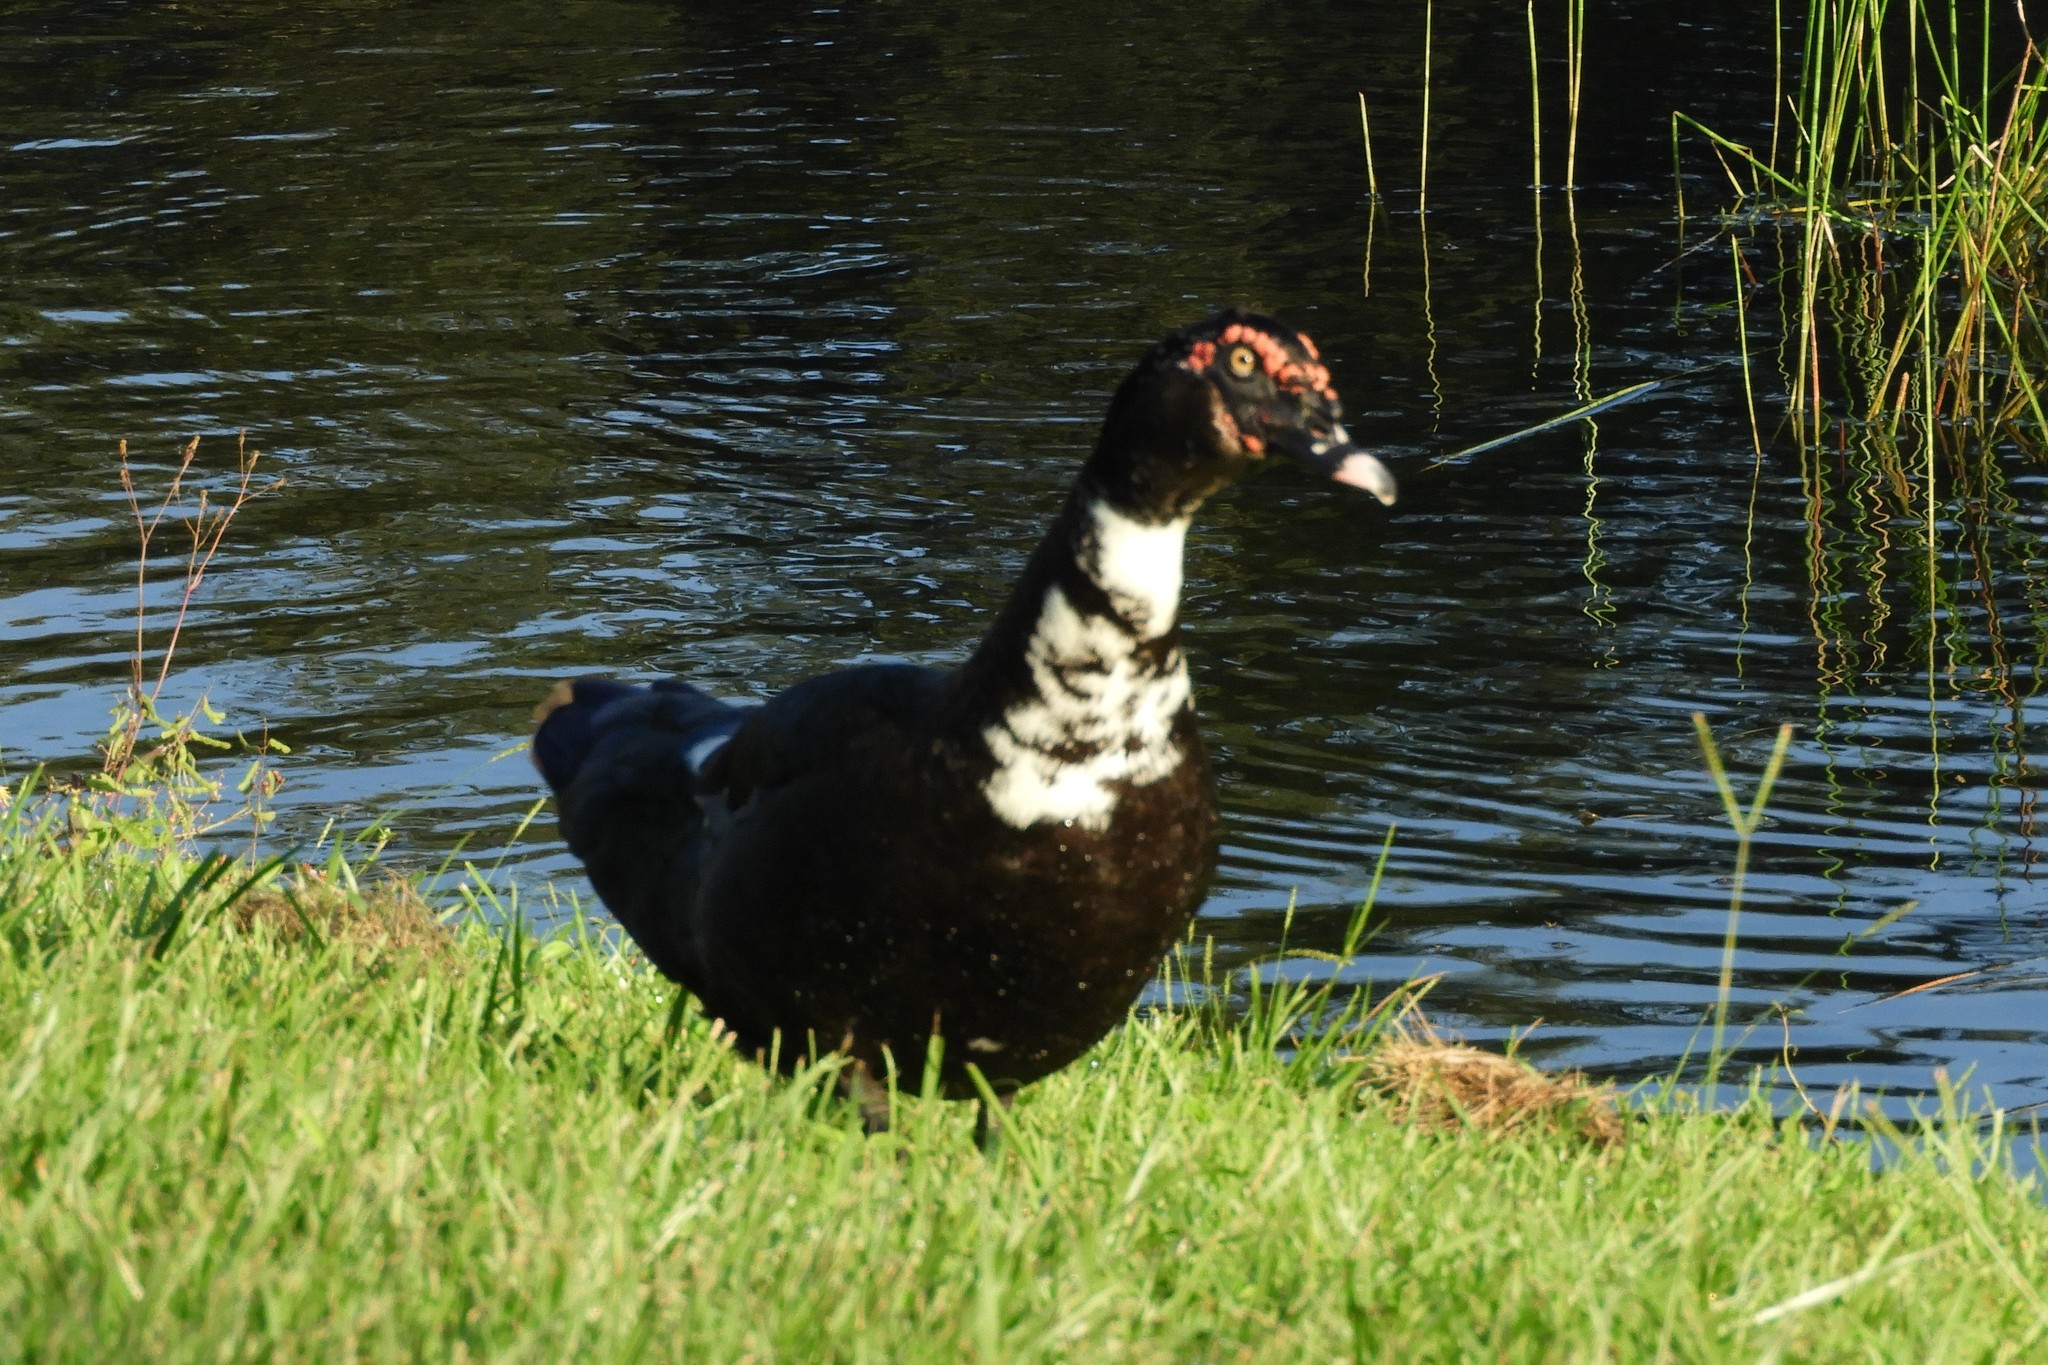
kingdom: Animalia
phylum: Chordata
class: Aves
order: Anseriformes
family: Anatidae
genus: Cairina
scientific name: Cairina moschata
